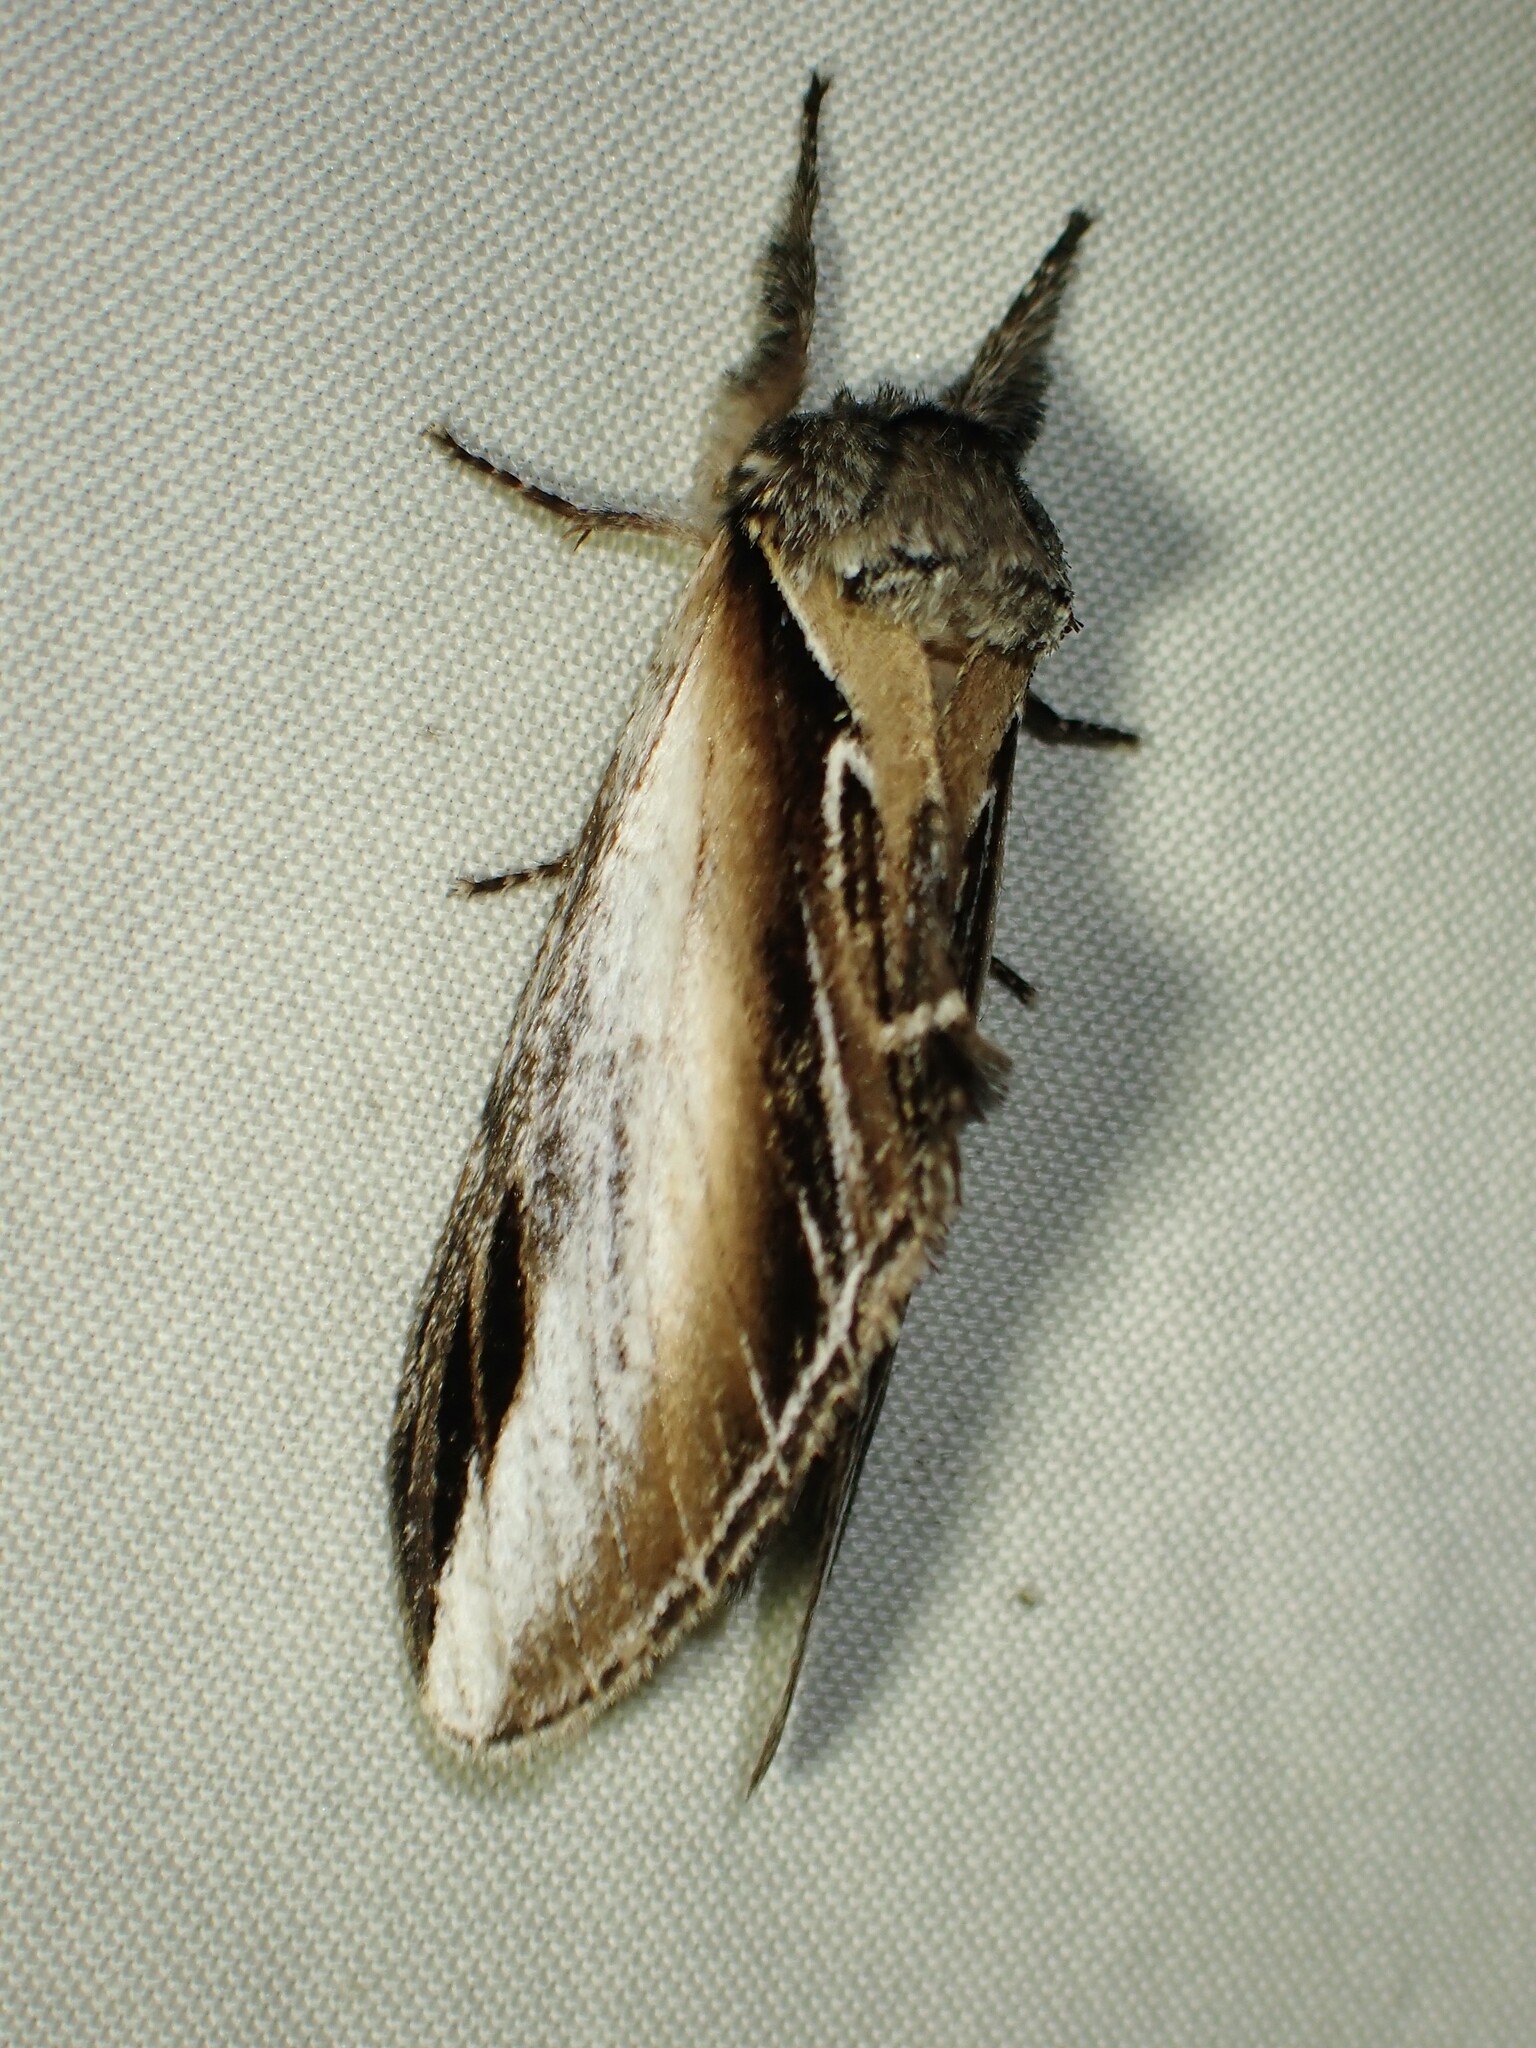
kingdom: Animalia
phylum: Arthropoda
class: Insecta
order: Lepidoptera
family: Notodontidae
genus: Pheosia
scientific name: Pheosia rimosa
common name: Black-rimmed prominent
